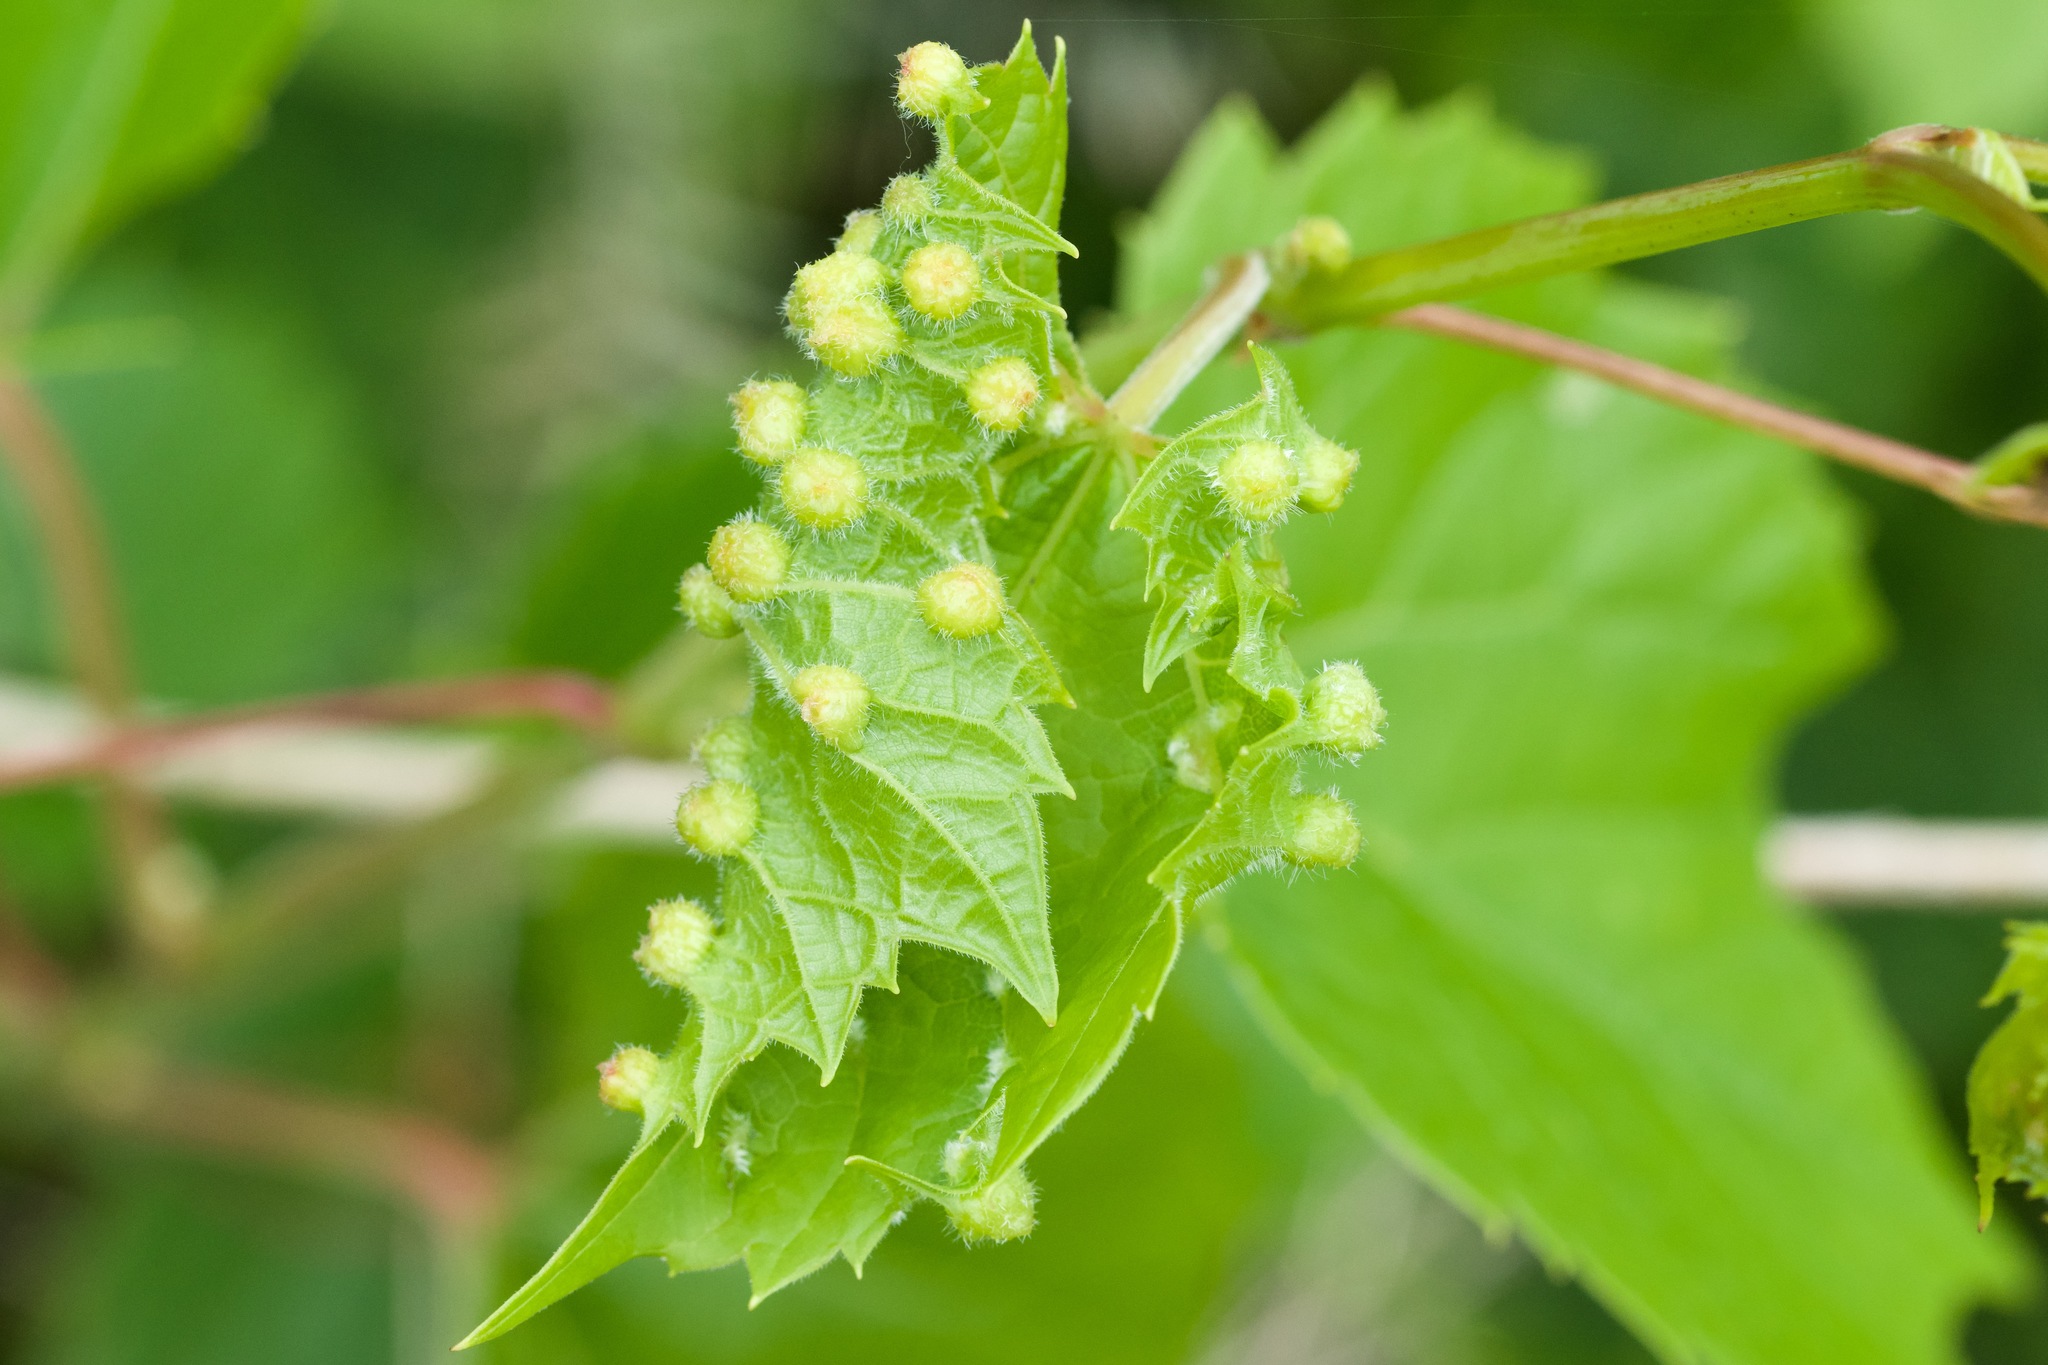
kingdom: Animalia
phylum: Arthropoda
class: Insecta
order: Hemiptera
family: Phylloxeridae
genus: Daktulosphaira
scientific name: Daktulosphaira vitifoliae
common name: Grape phylloxera
